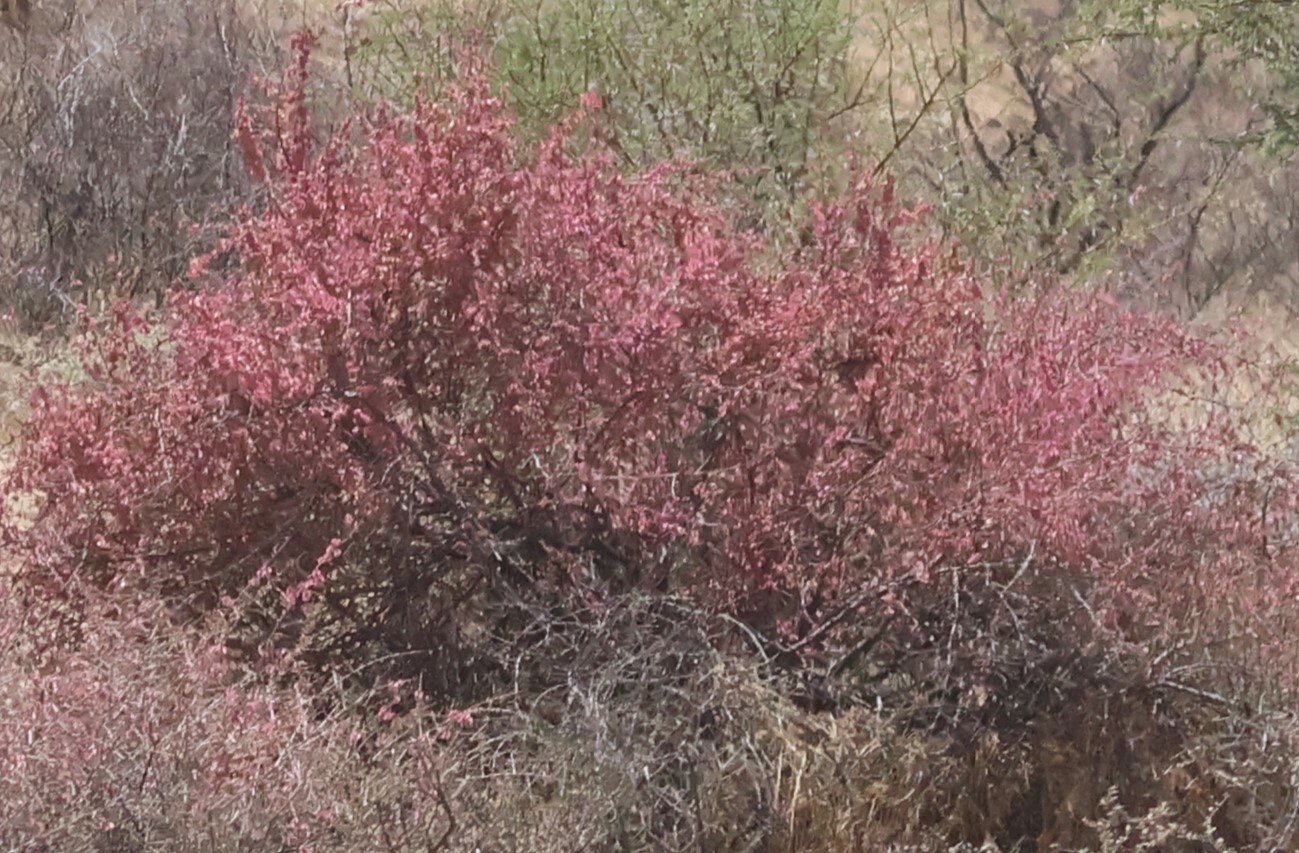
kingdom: Plantae
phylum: Tracheophyta
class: Magnoliopsida
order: Caryophyllales
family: Nyctaginaceae
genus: Phaeoptilum
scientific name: Phaeoptilum spinosum
